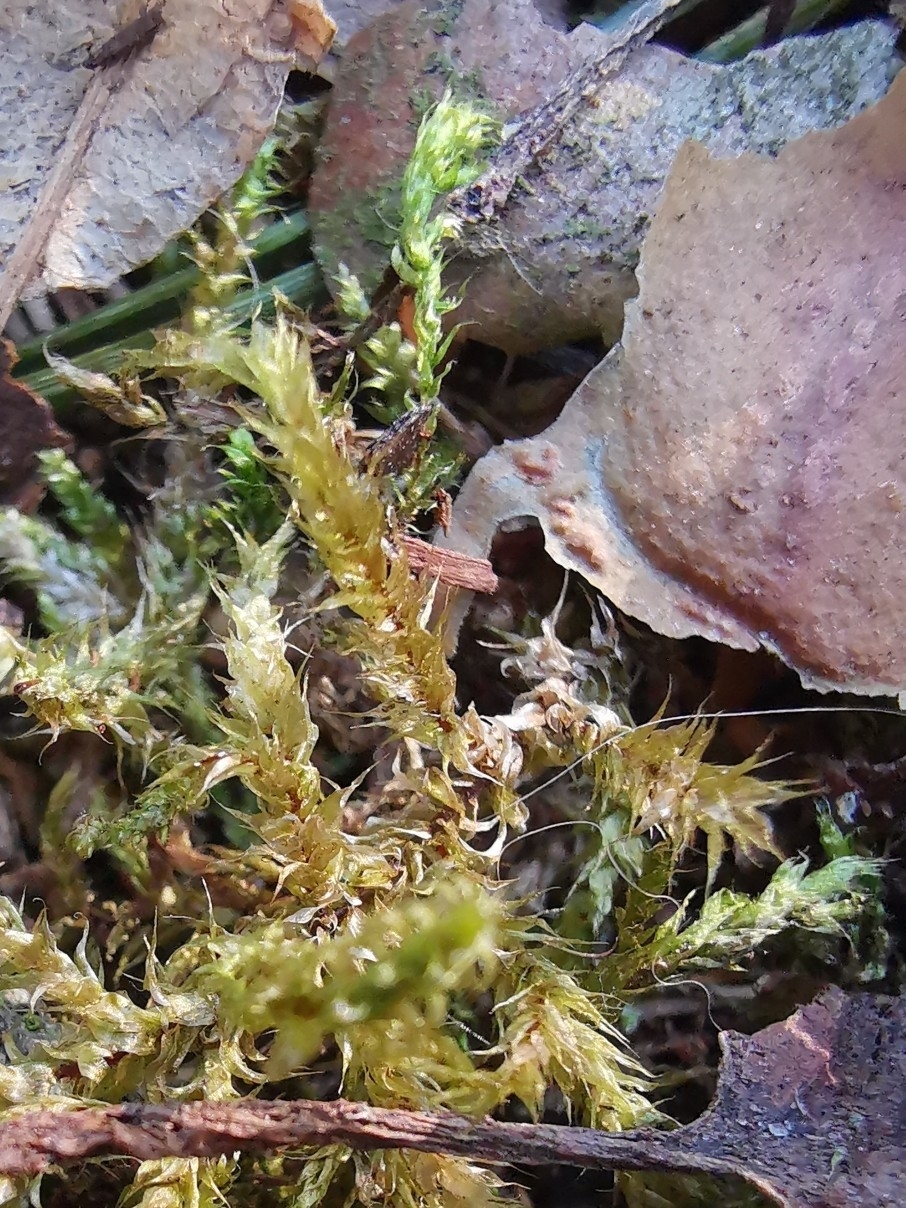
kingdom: Plantae
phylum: Bryophyta
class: Bryopsida
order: Hypnales
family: Hylocomiaceae
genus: Rhytidiadelphus
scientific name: Rhytidiadelphus squarrosus
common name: Springy turf-moss
